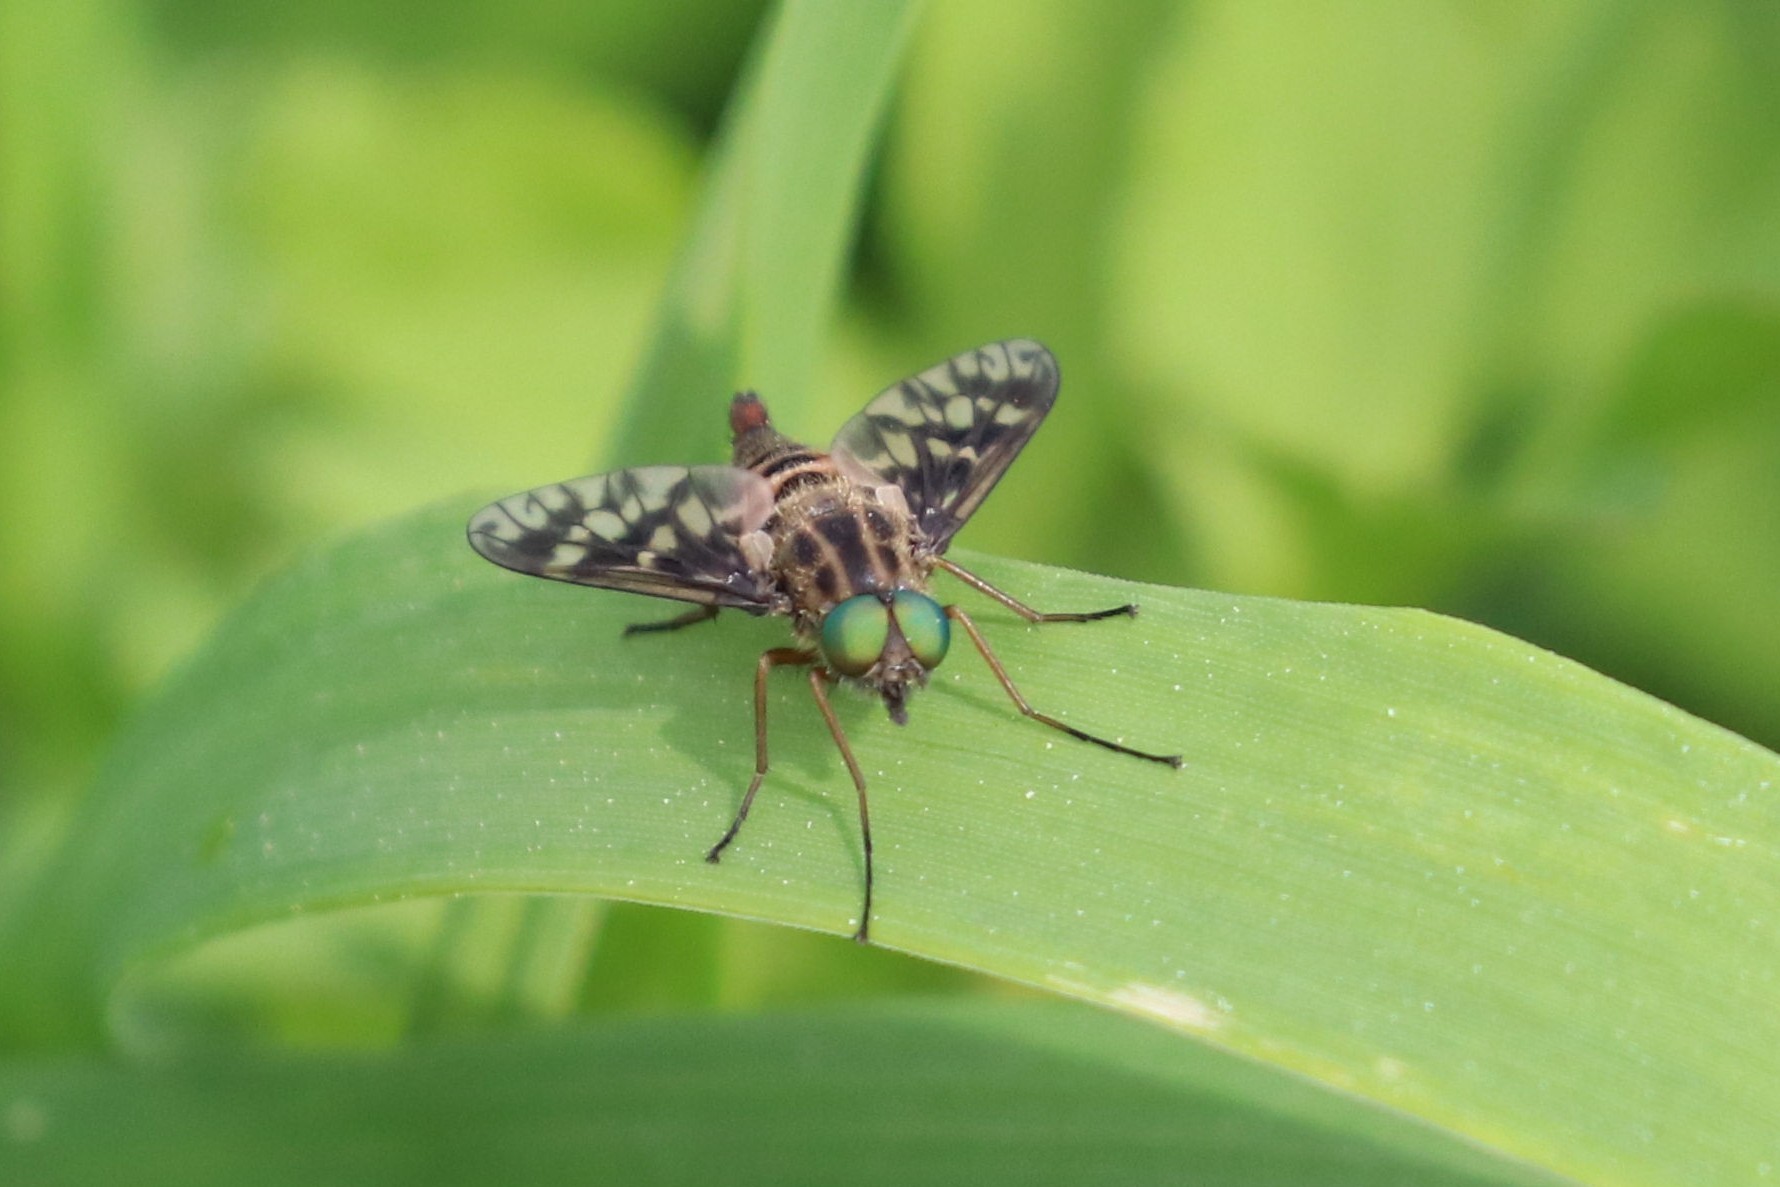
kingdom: Animalia
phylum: Arthropoda
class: Insecta
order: Diptera
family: Athericidae
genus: Atherix
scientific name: Atherix ibis
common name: Yellow-legged water-snipefly
